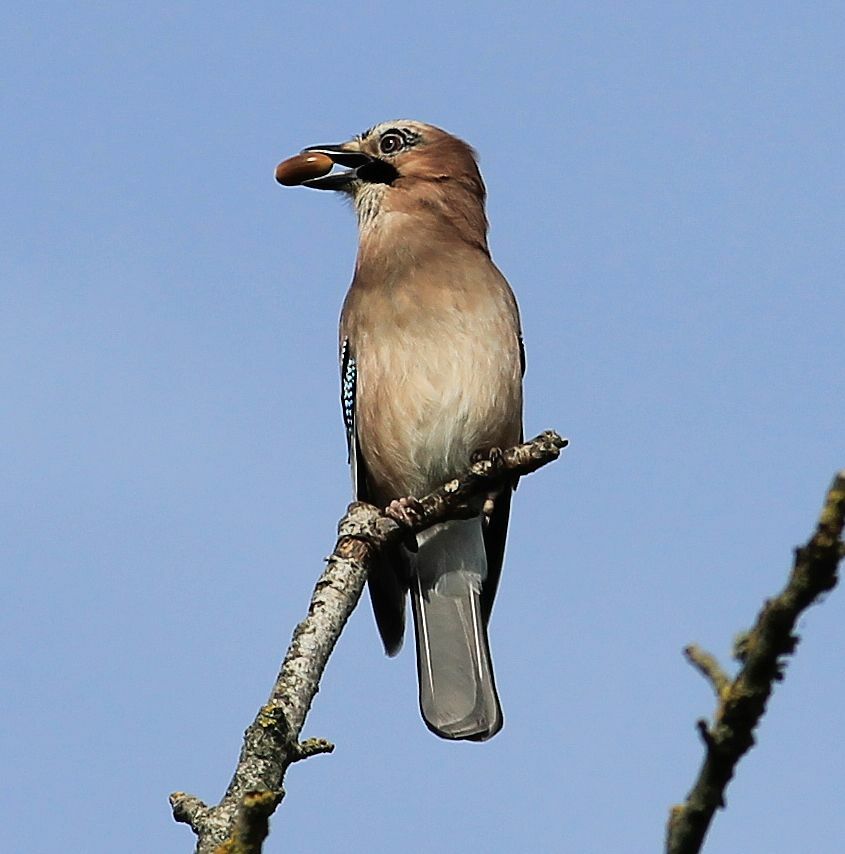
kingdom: Animalia
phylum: Chordata
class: Aves
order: Passeriformes
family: Corvidae
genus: Garrulus
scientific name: Garrulus glandarius
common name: Eurasian jay
